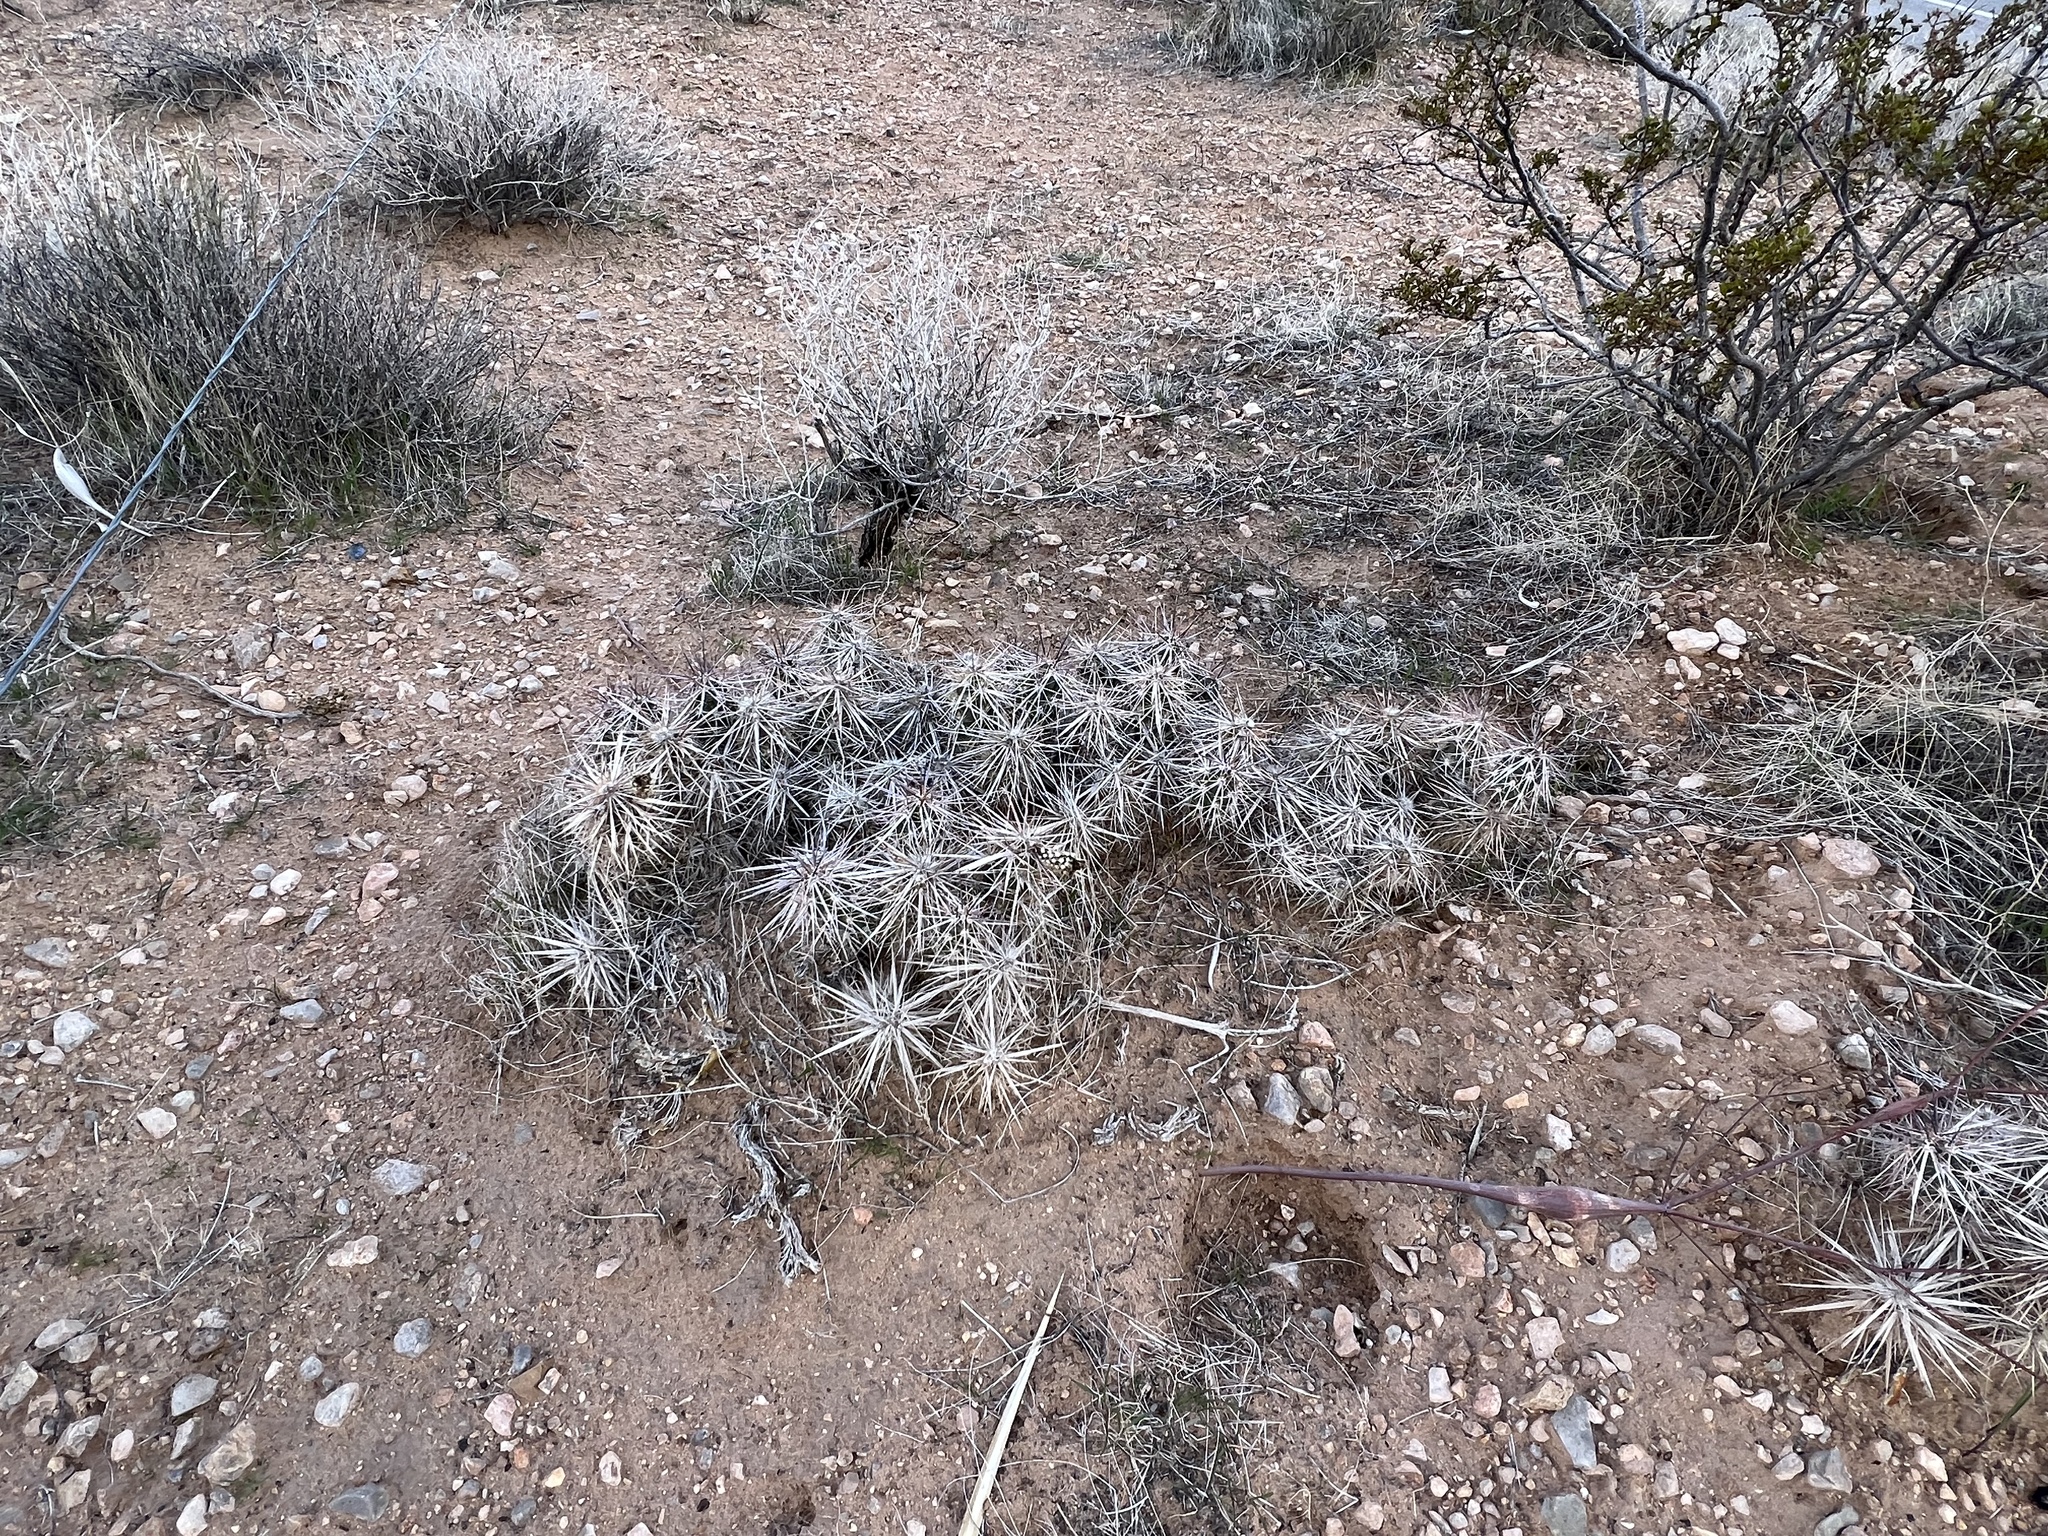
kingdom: Plantae
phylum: Tracheophyta
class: Magnoliopsida
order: Caryophyllales
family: Cactaceae
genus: Grusonia
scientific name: Grusonia parishiorum
